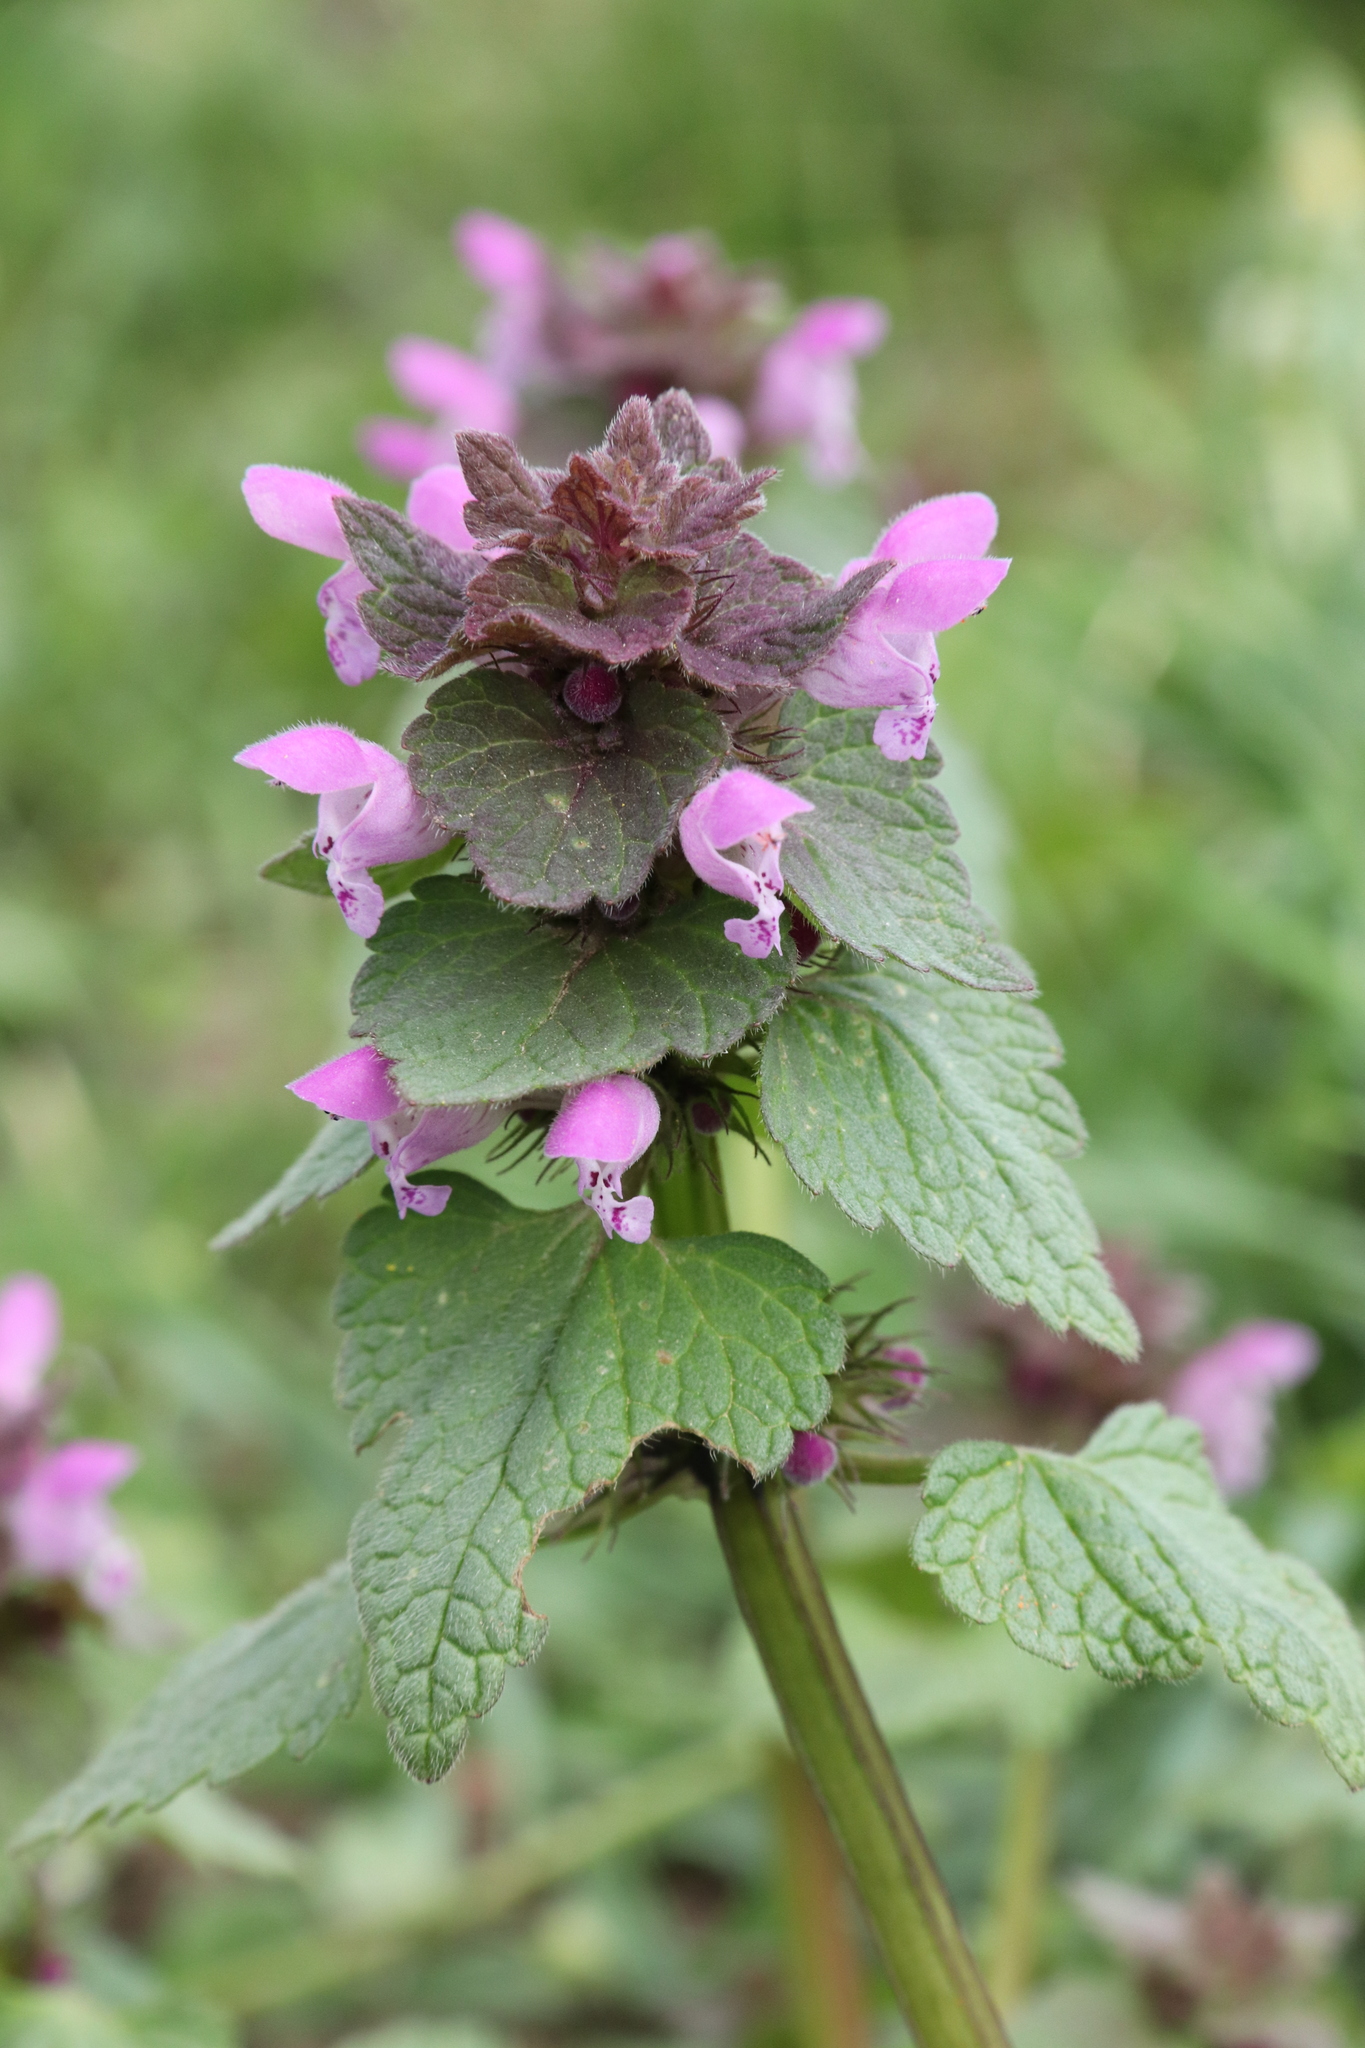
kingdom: Plantae
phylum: Tracheophyta
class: Magnoliopsida
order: Lamiales
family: Lamiaceae
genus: Lamium
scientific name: Lamium purpureum
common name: Red dead-nettle
